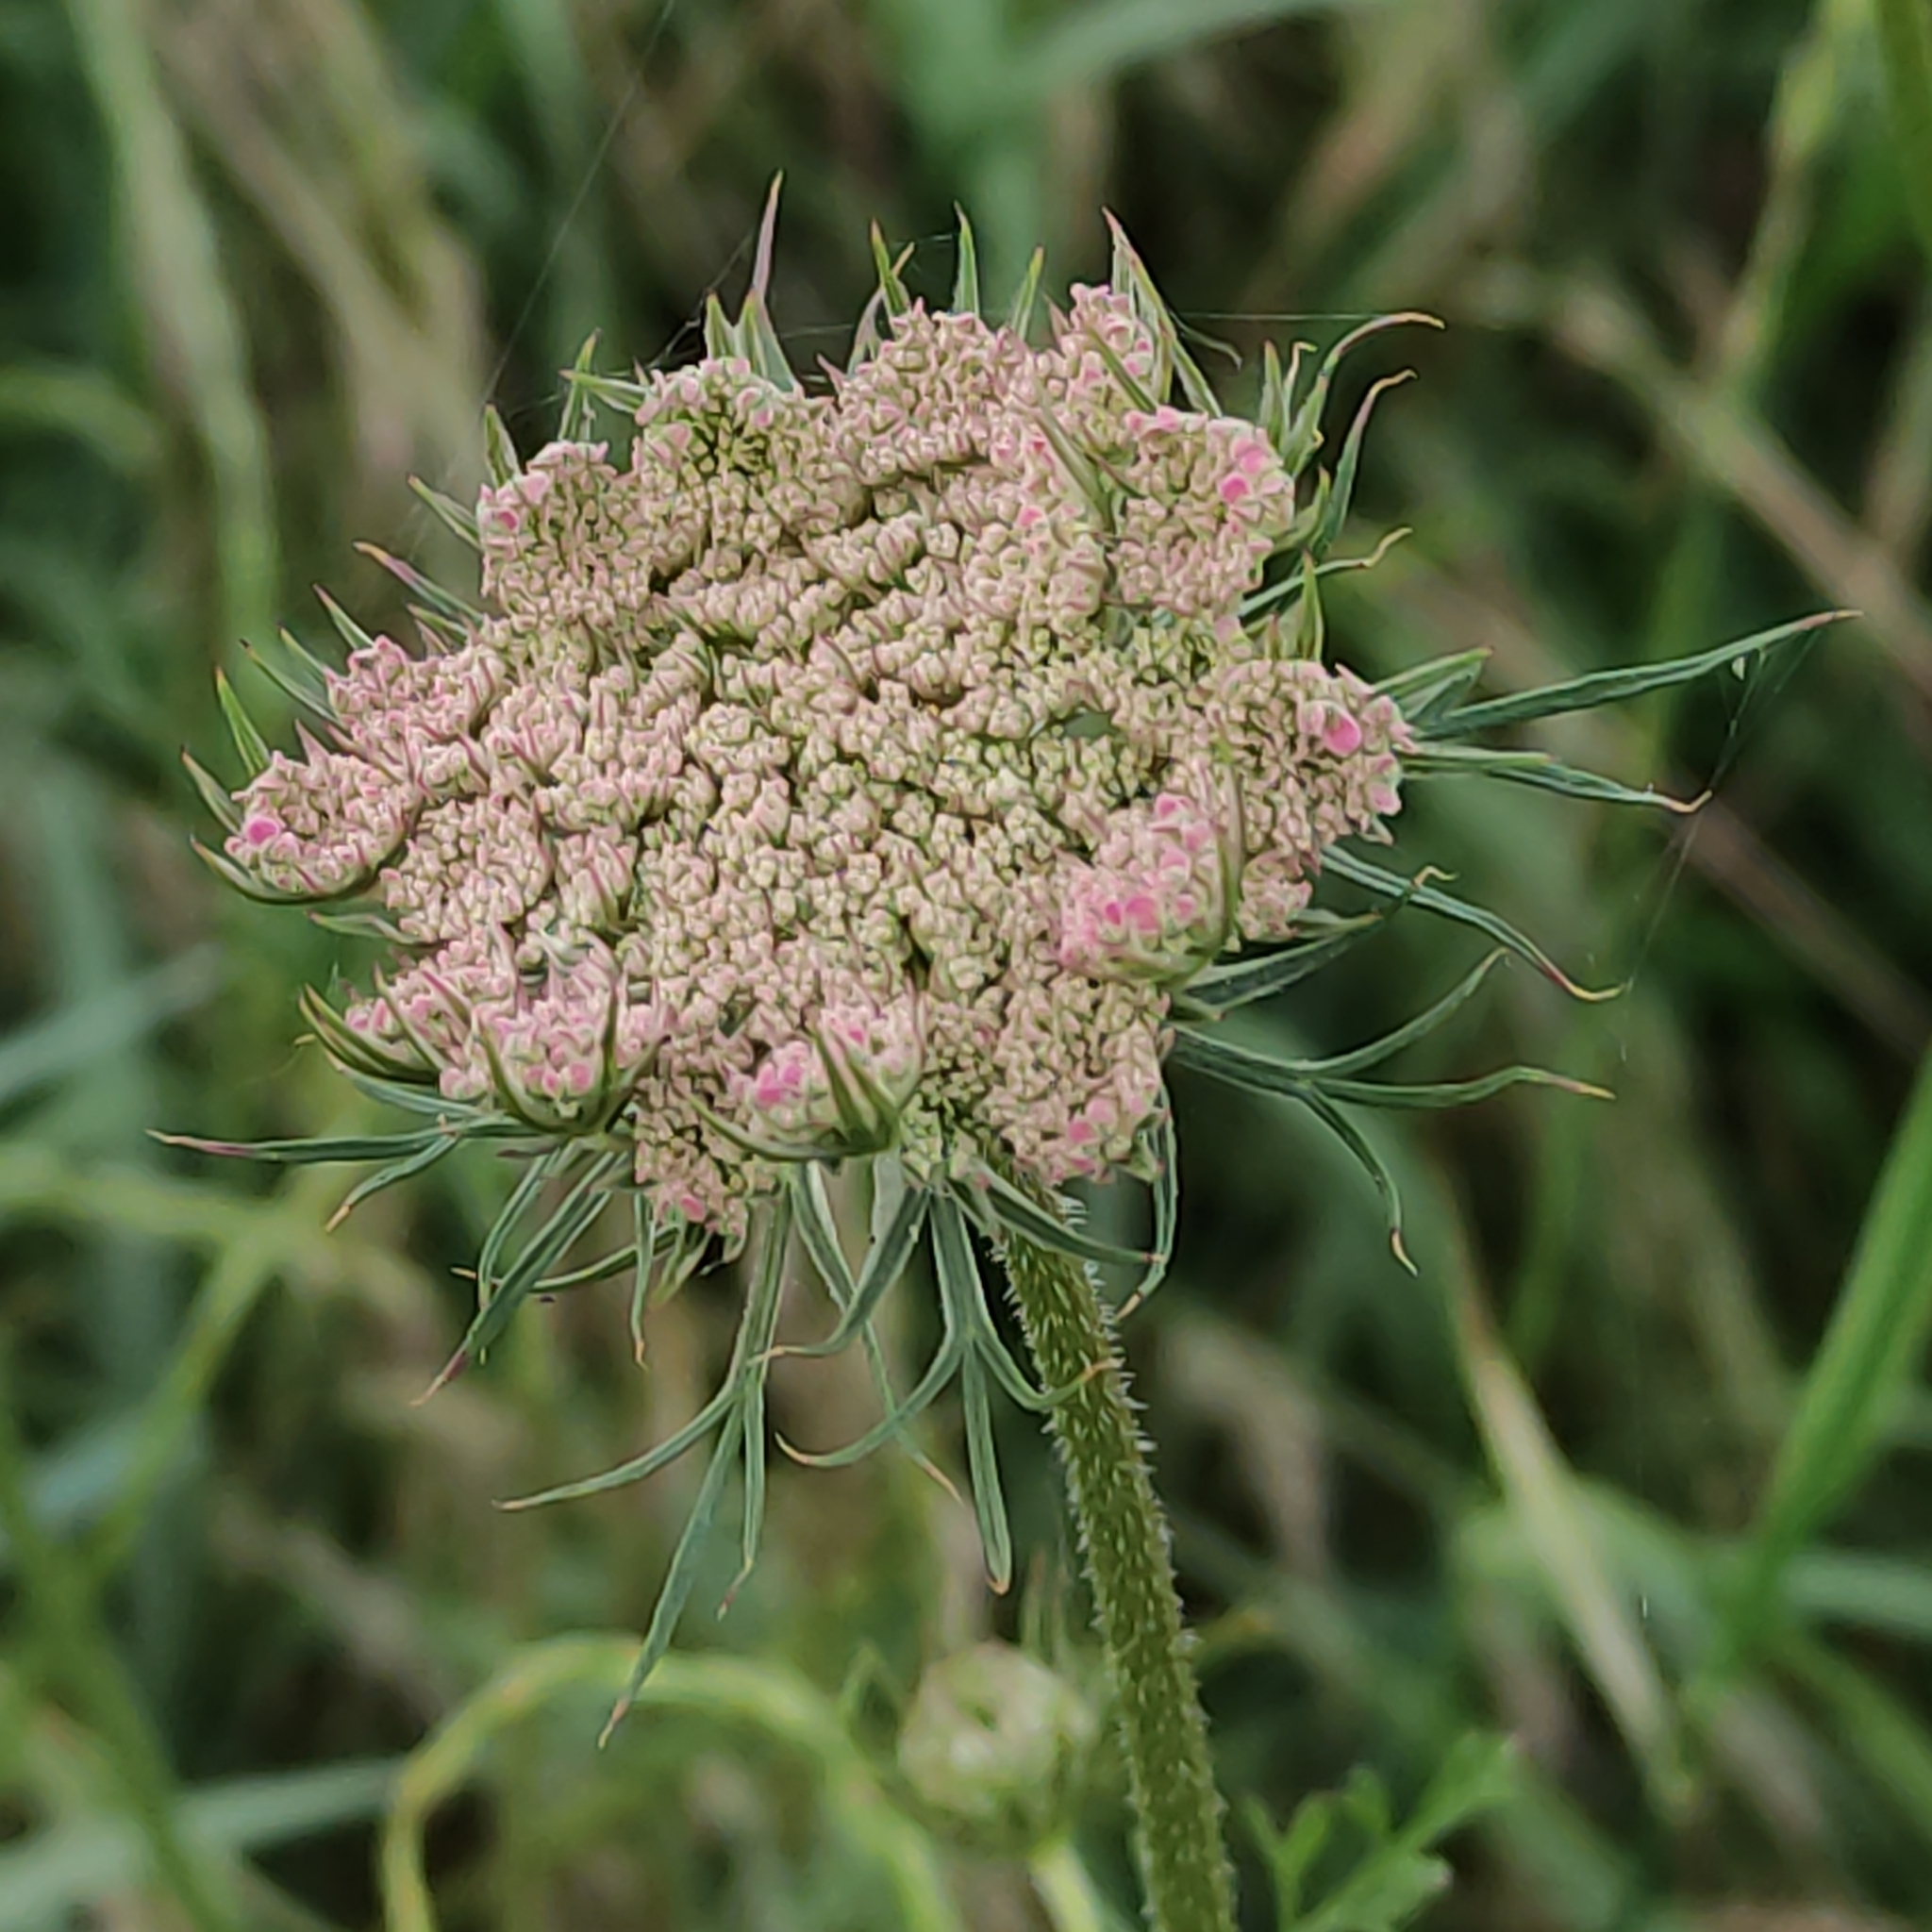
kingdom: Plantae
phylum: Tracheophyta
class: Magnoliopsida
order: Apiales
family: Apiaceae
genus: Daucus
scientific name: Daucus carota
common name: Wild carrot
